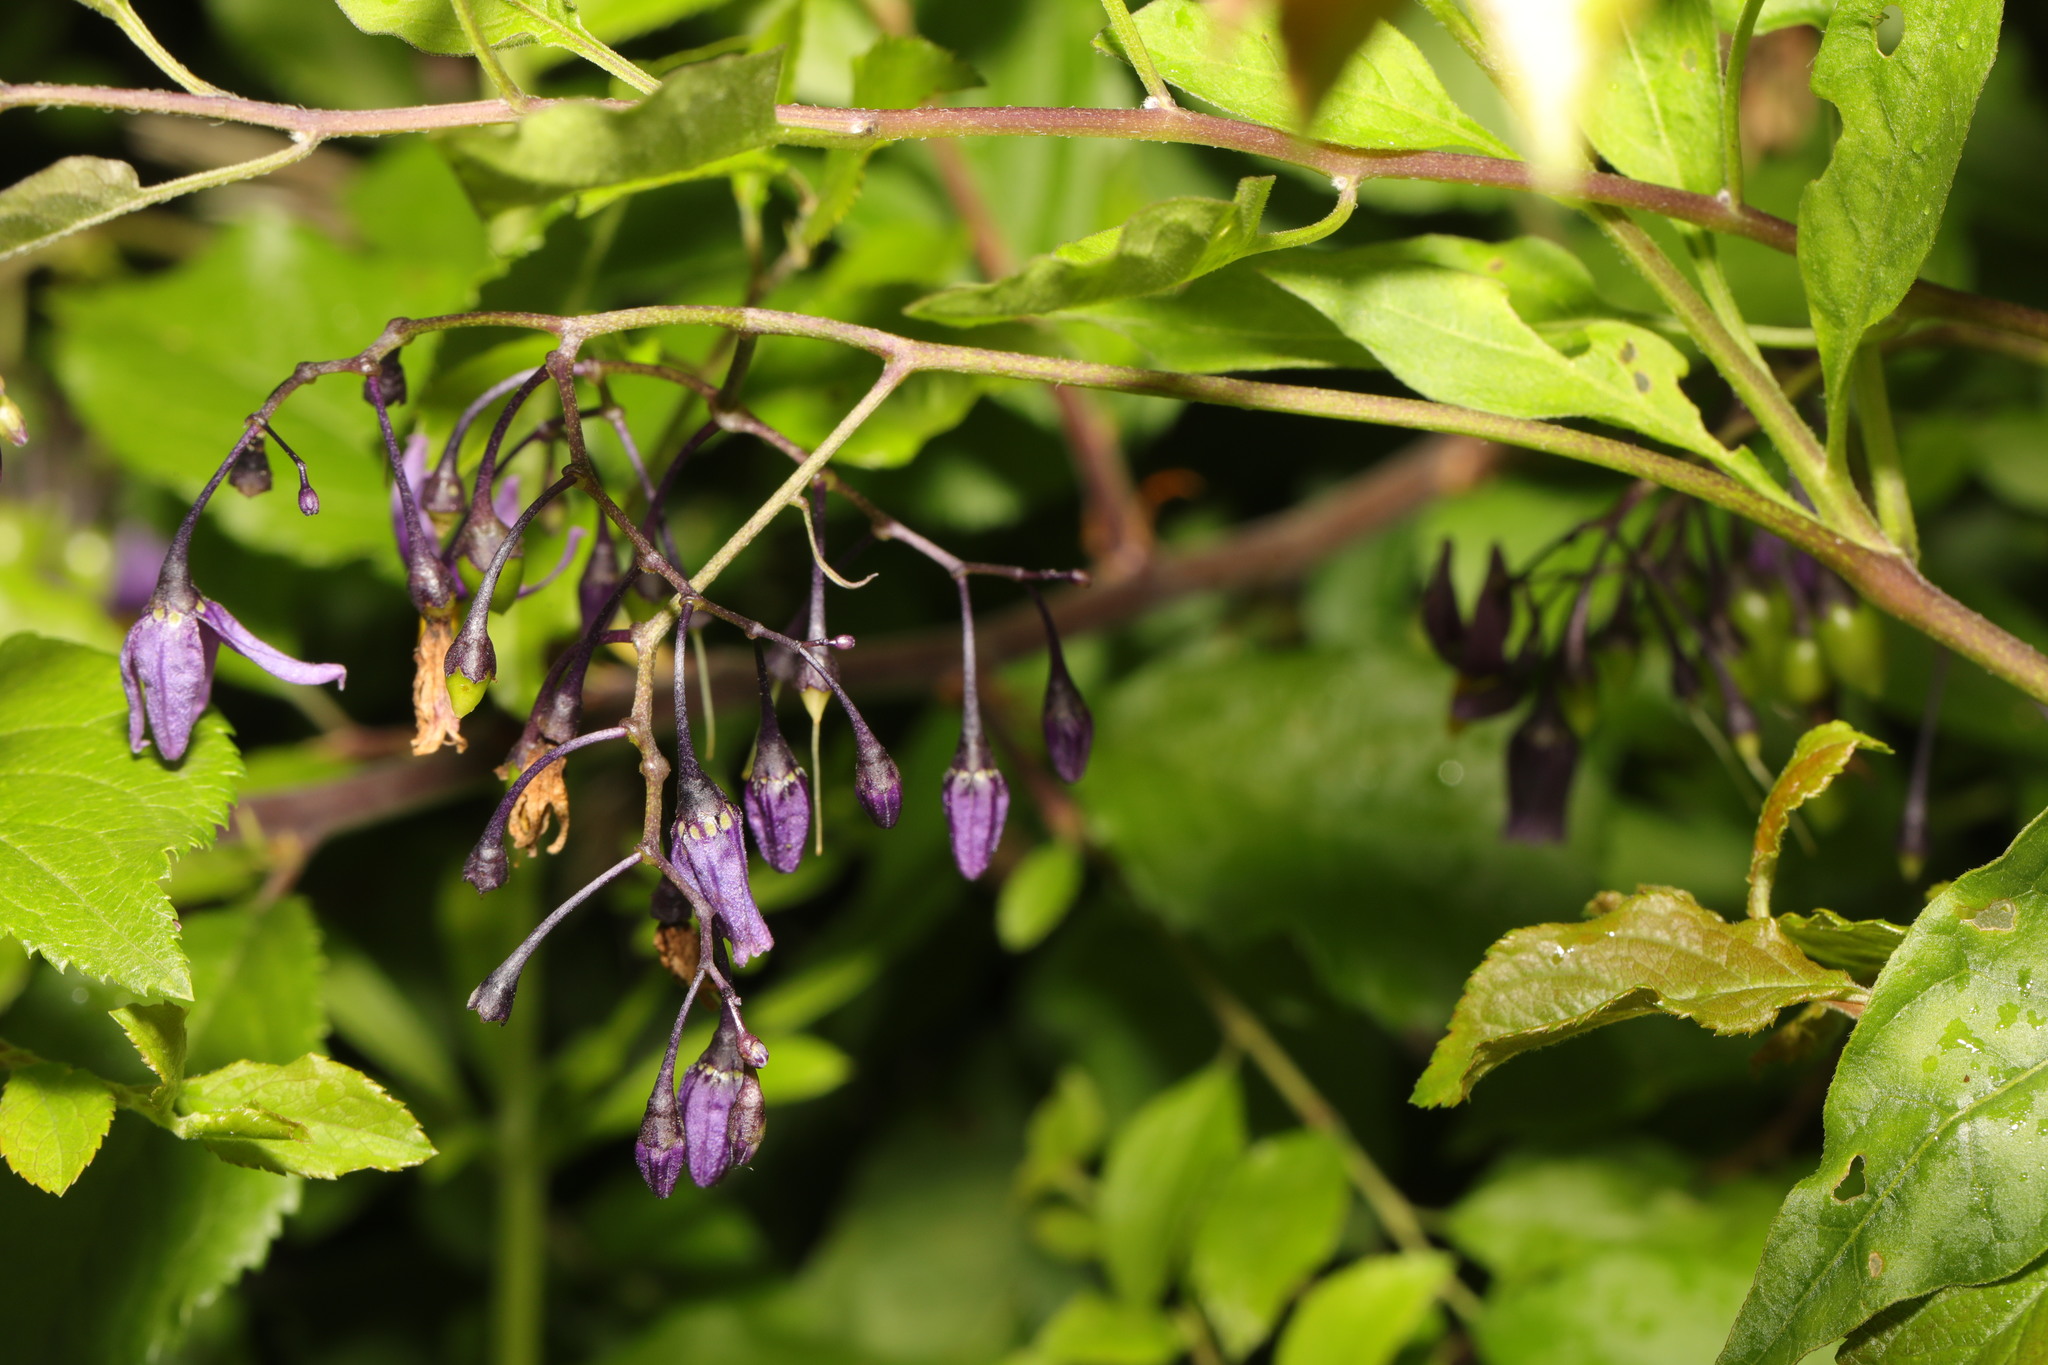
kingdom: Plantae
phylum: Tracheophyta
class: Magnoliopsida
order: Solanales
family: Solanaceae
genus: Solanum
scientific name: Solanum dulcamara
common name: Climbing nightshade
